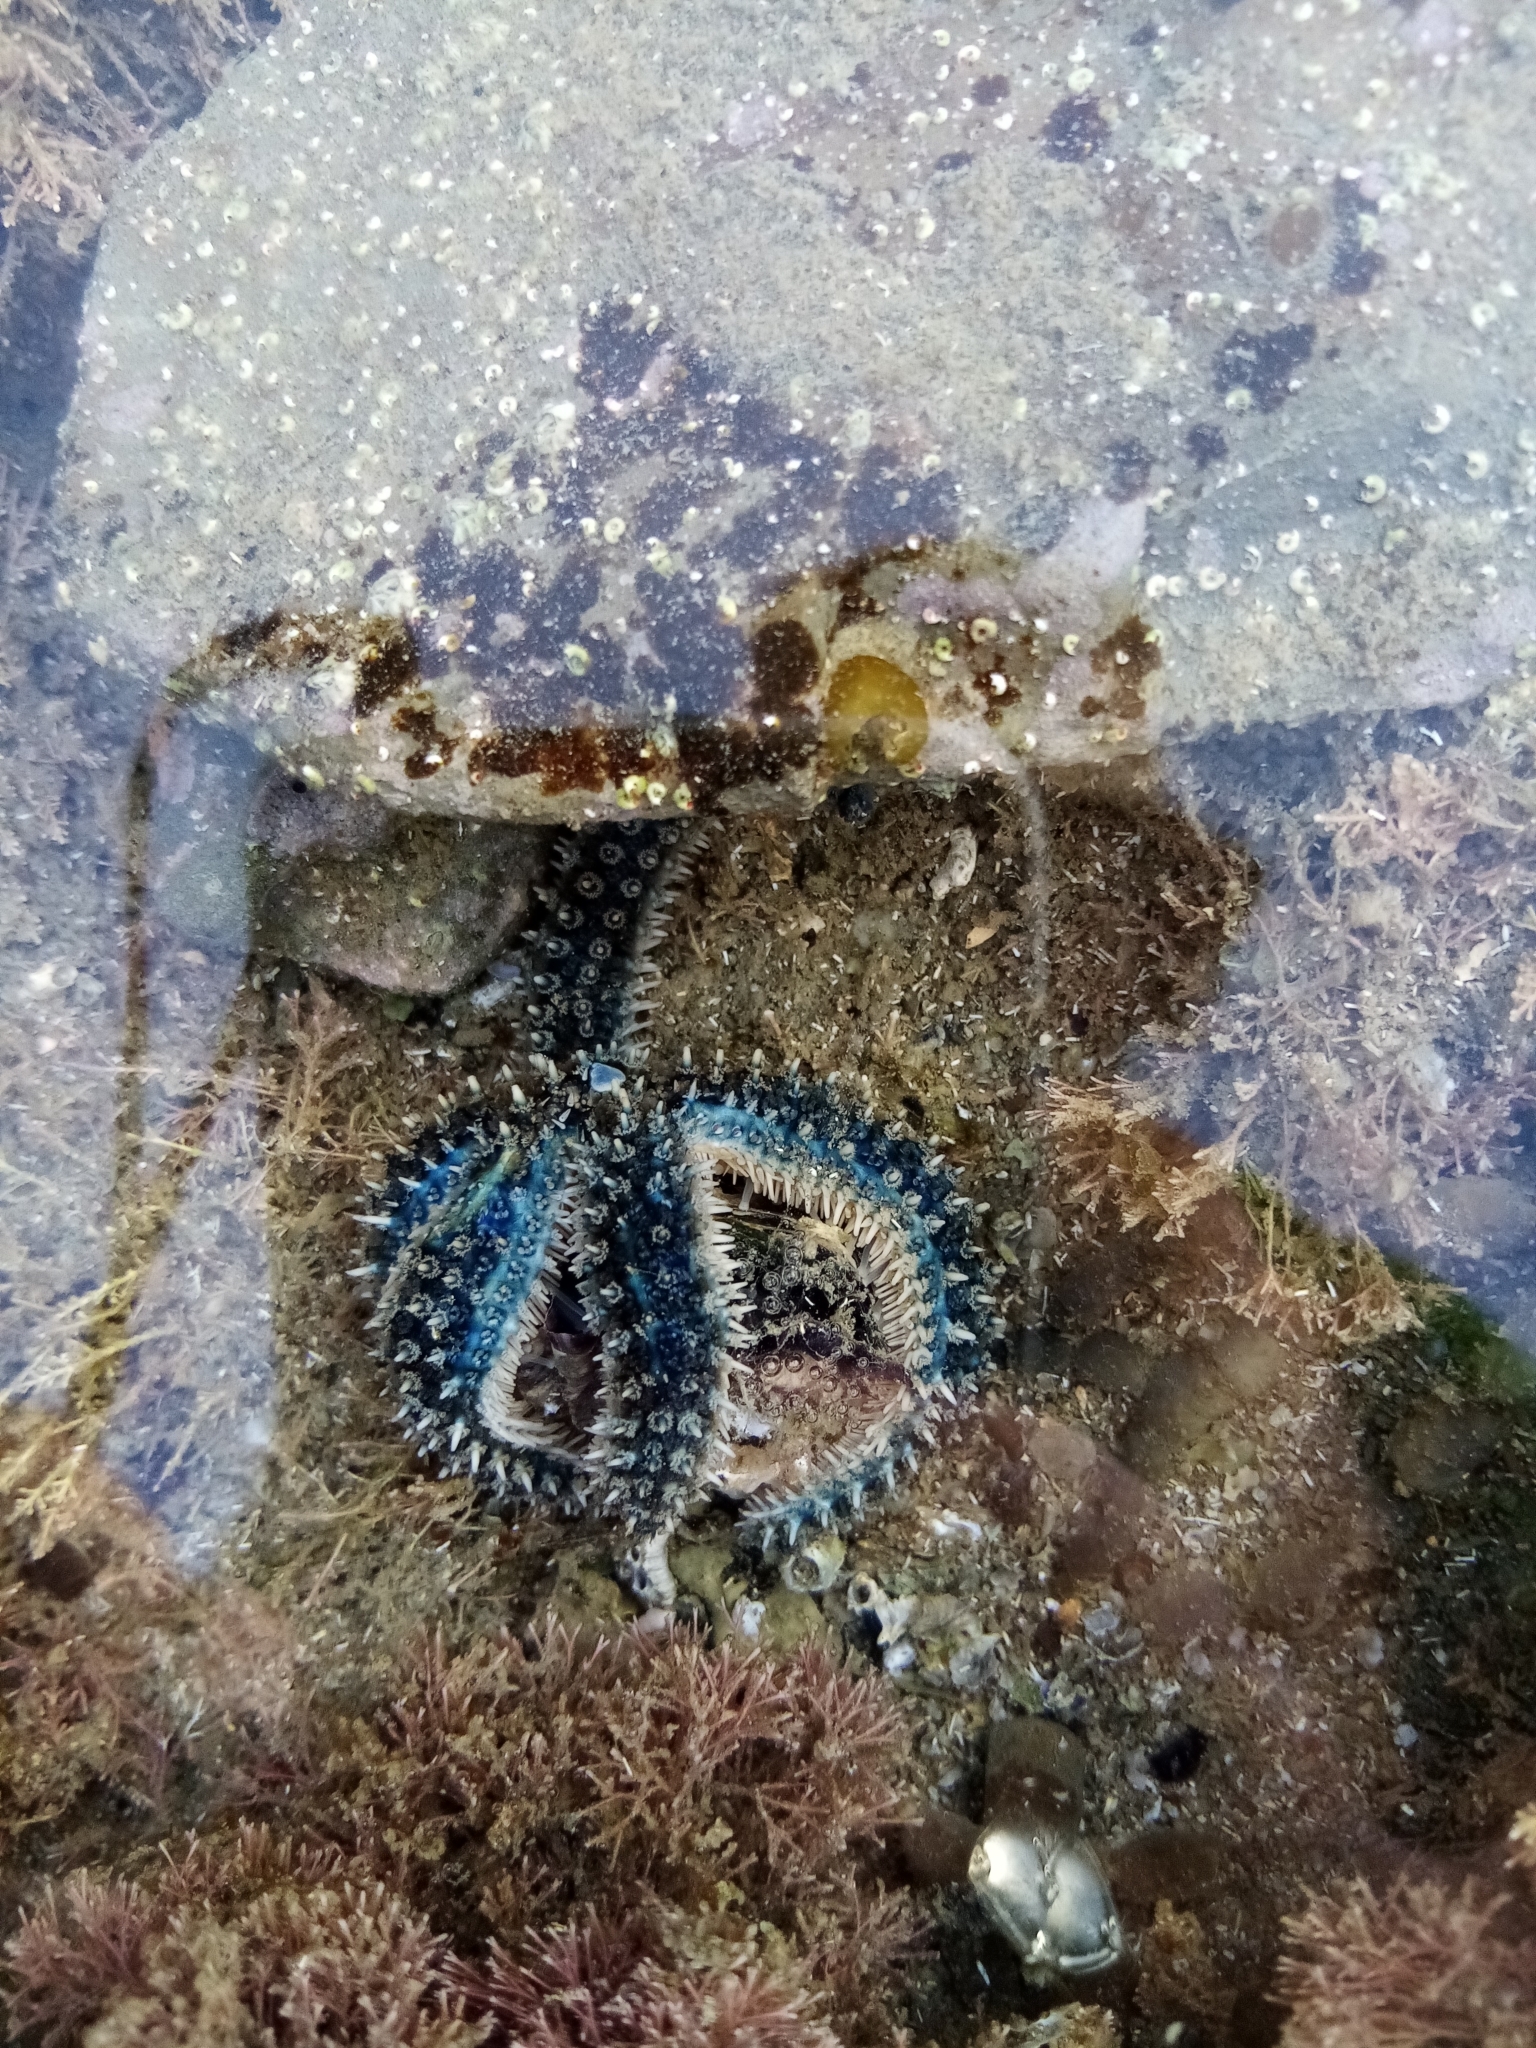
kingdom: Animalia
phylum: Echinodermata
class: Asteroidea
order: Forcipulatida
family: Asteriidae
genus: Coscinasterias
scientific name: Coscinasterias muricata
